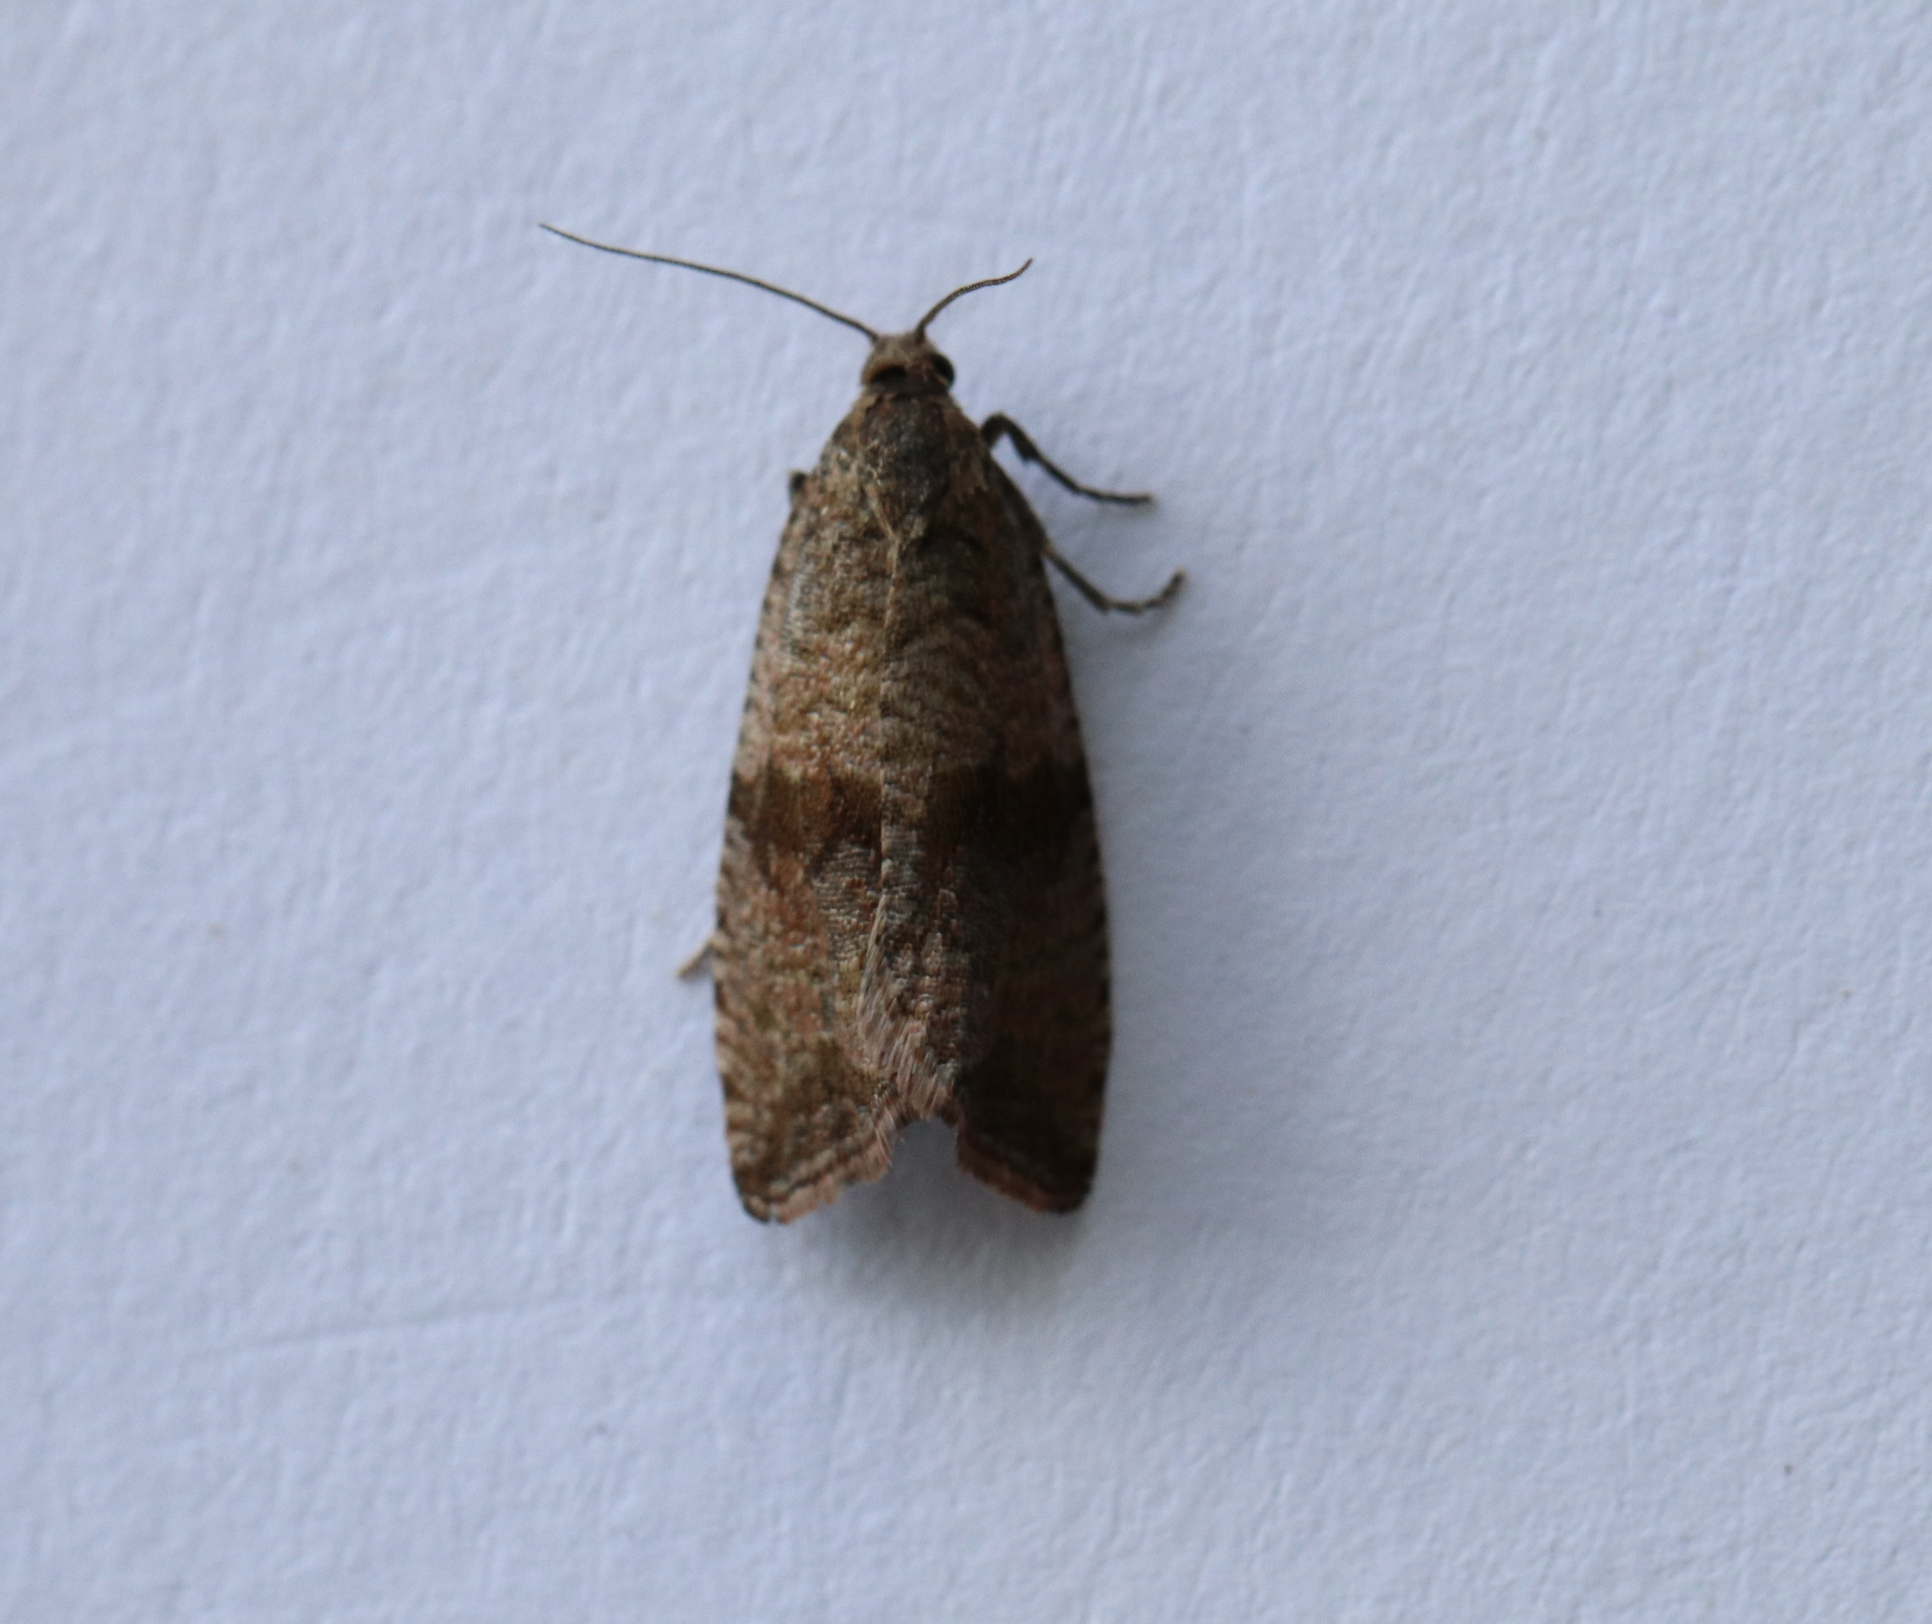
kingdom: Animalia
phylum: Arthropoda
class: Insecta
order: Lepidoptera
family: Tortricidae
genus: Celypha
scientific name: Celypha striana
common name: Barred marble
